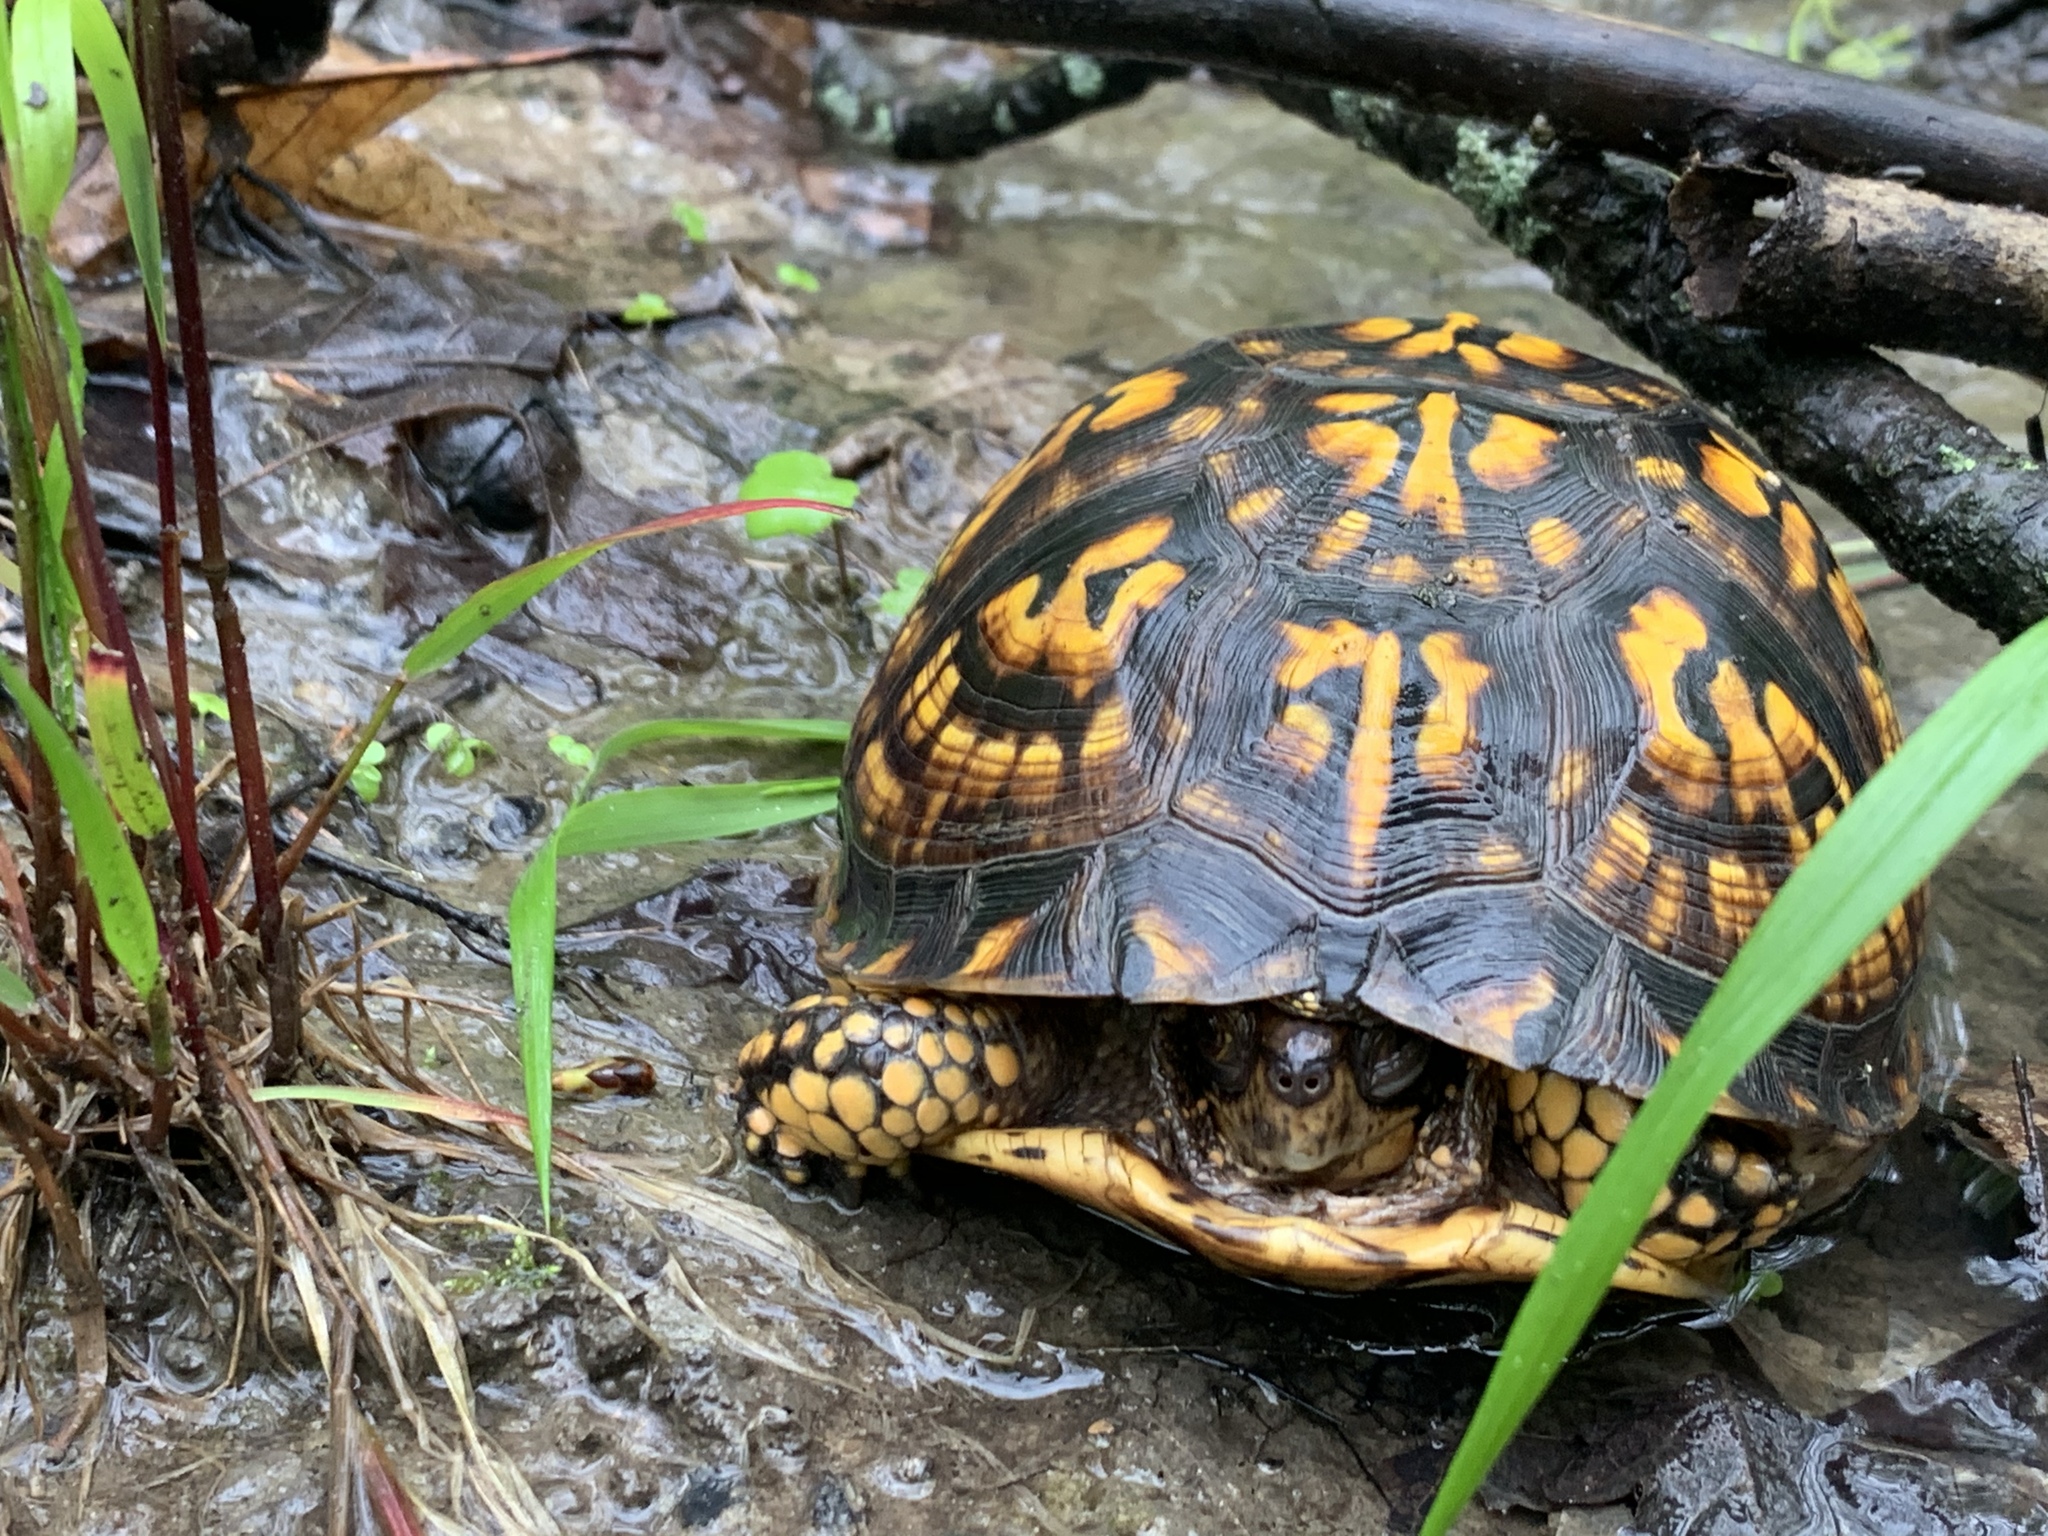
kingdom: Animalia
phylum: Chordata
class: Testudines
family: Emydidae
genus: Terrapene
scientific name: Terrapene carolina
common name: Common box turtle
